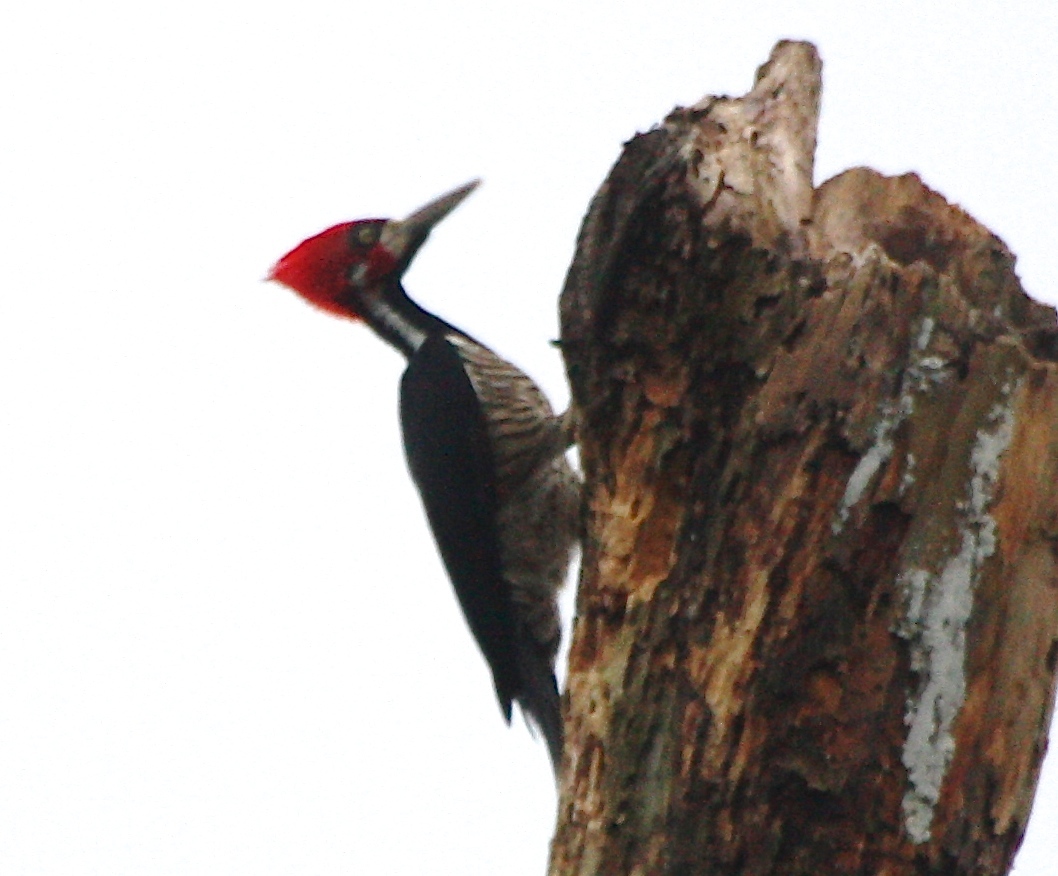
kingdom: Animalia
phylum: Chordata
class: Aves
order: Piciformes
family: Picidae
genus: Campephilus
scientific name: Campephilus melanoleucos
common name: Crimson-crested woodpecker
